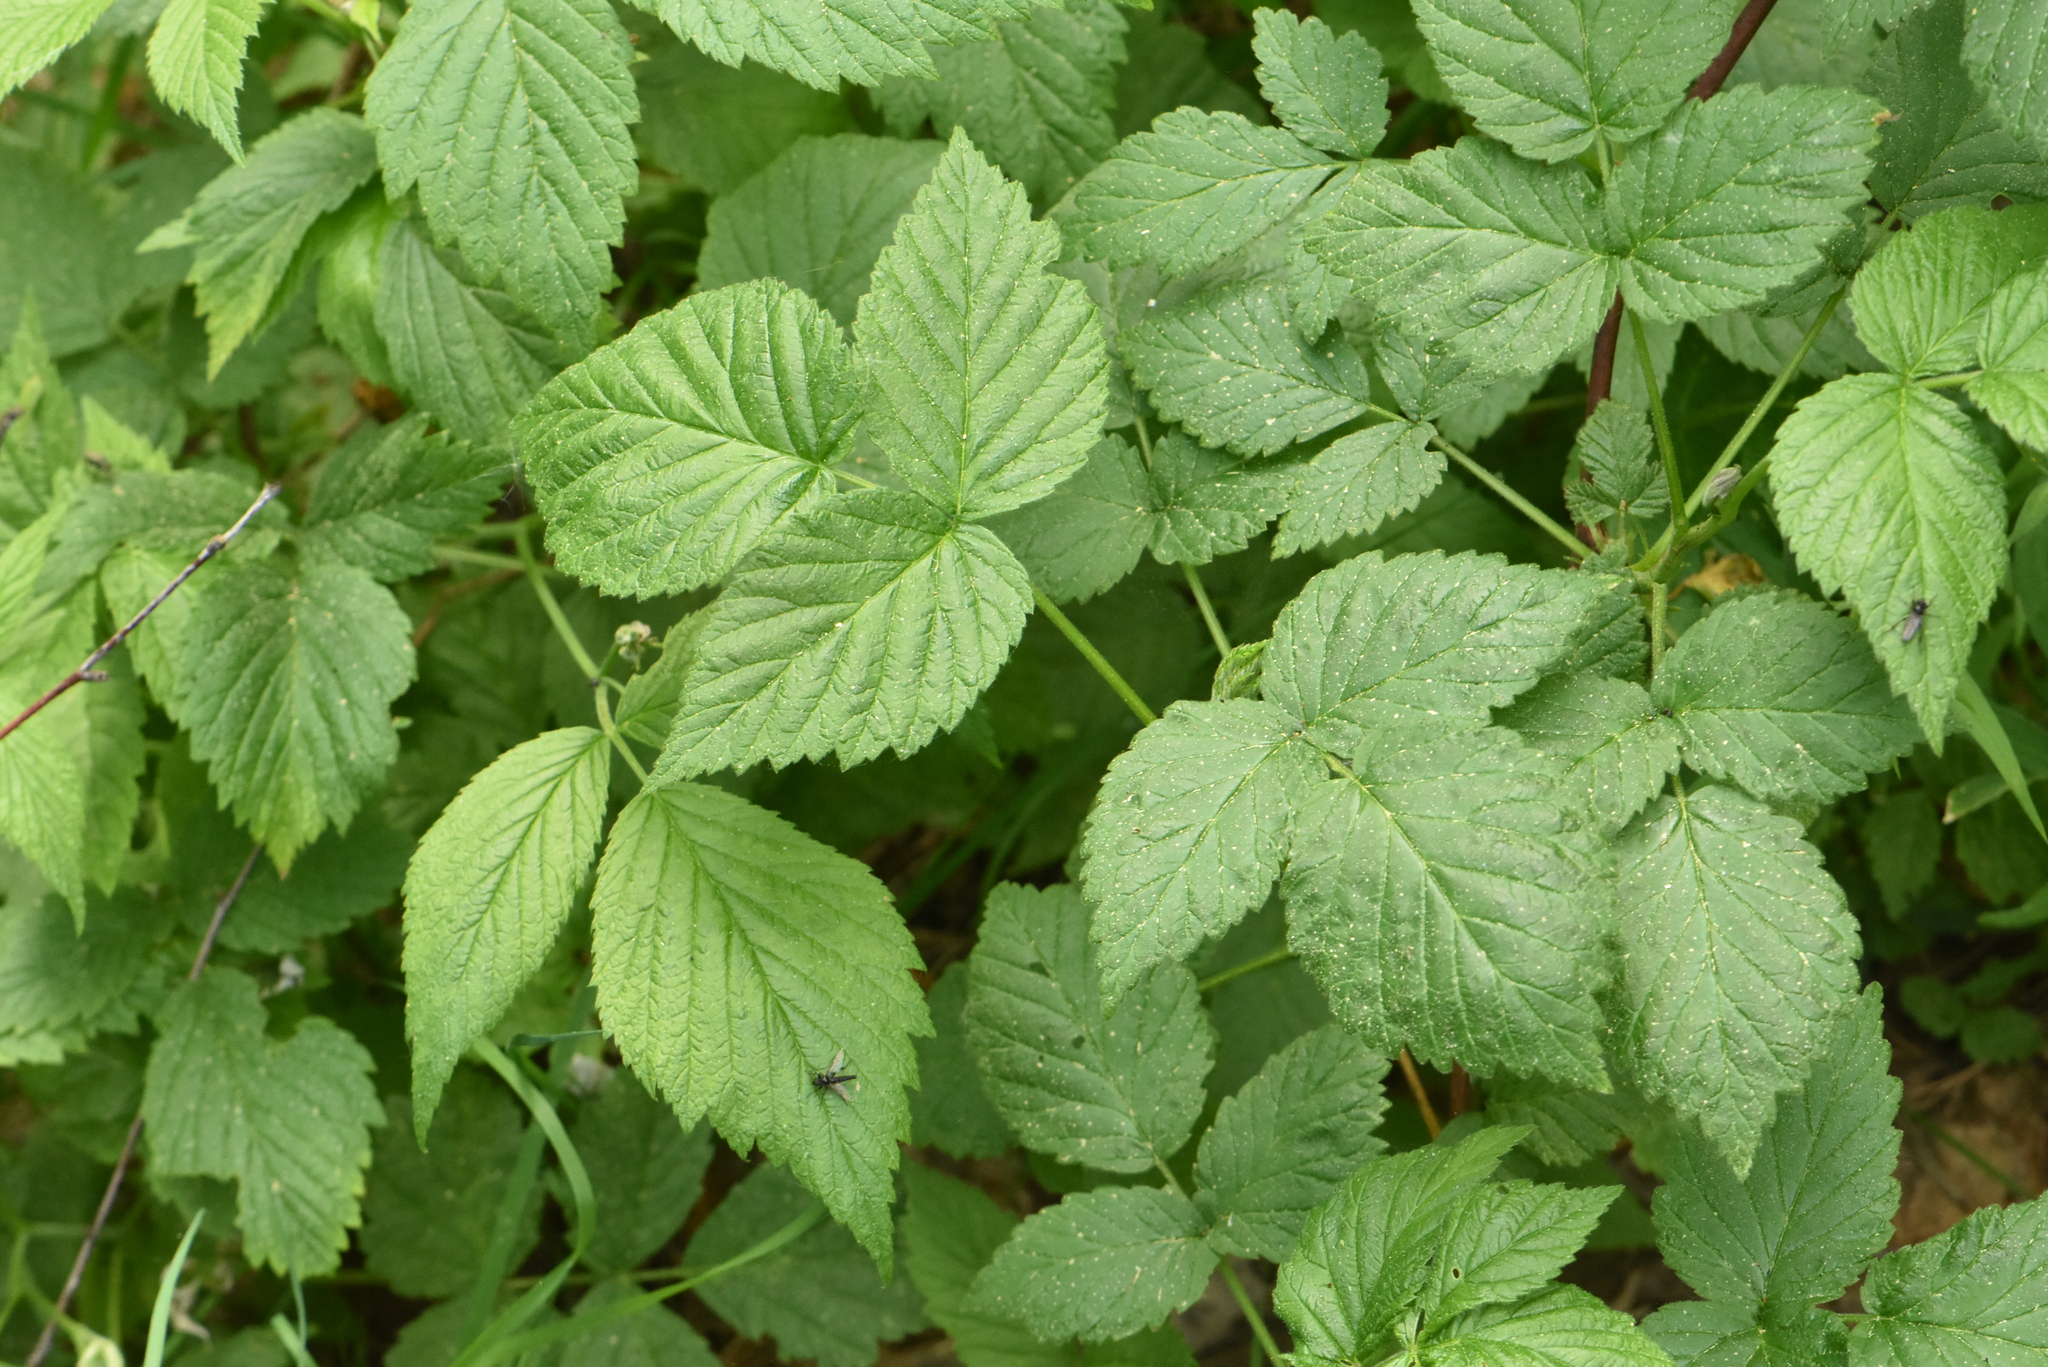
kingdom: Plantae
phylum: Tracheophyta
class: Magnoliopsida
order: Rosales
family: Rosaceae
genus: Rubus
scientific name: Rubus idaeus
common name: Raspberry
